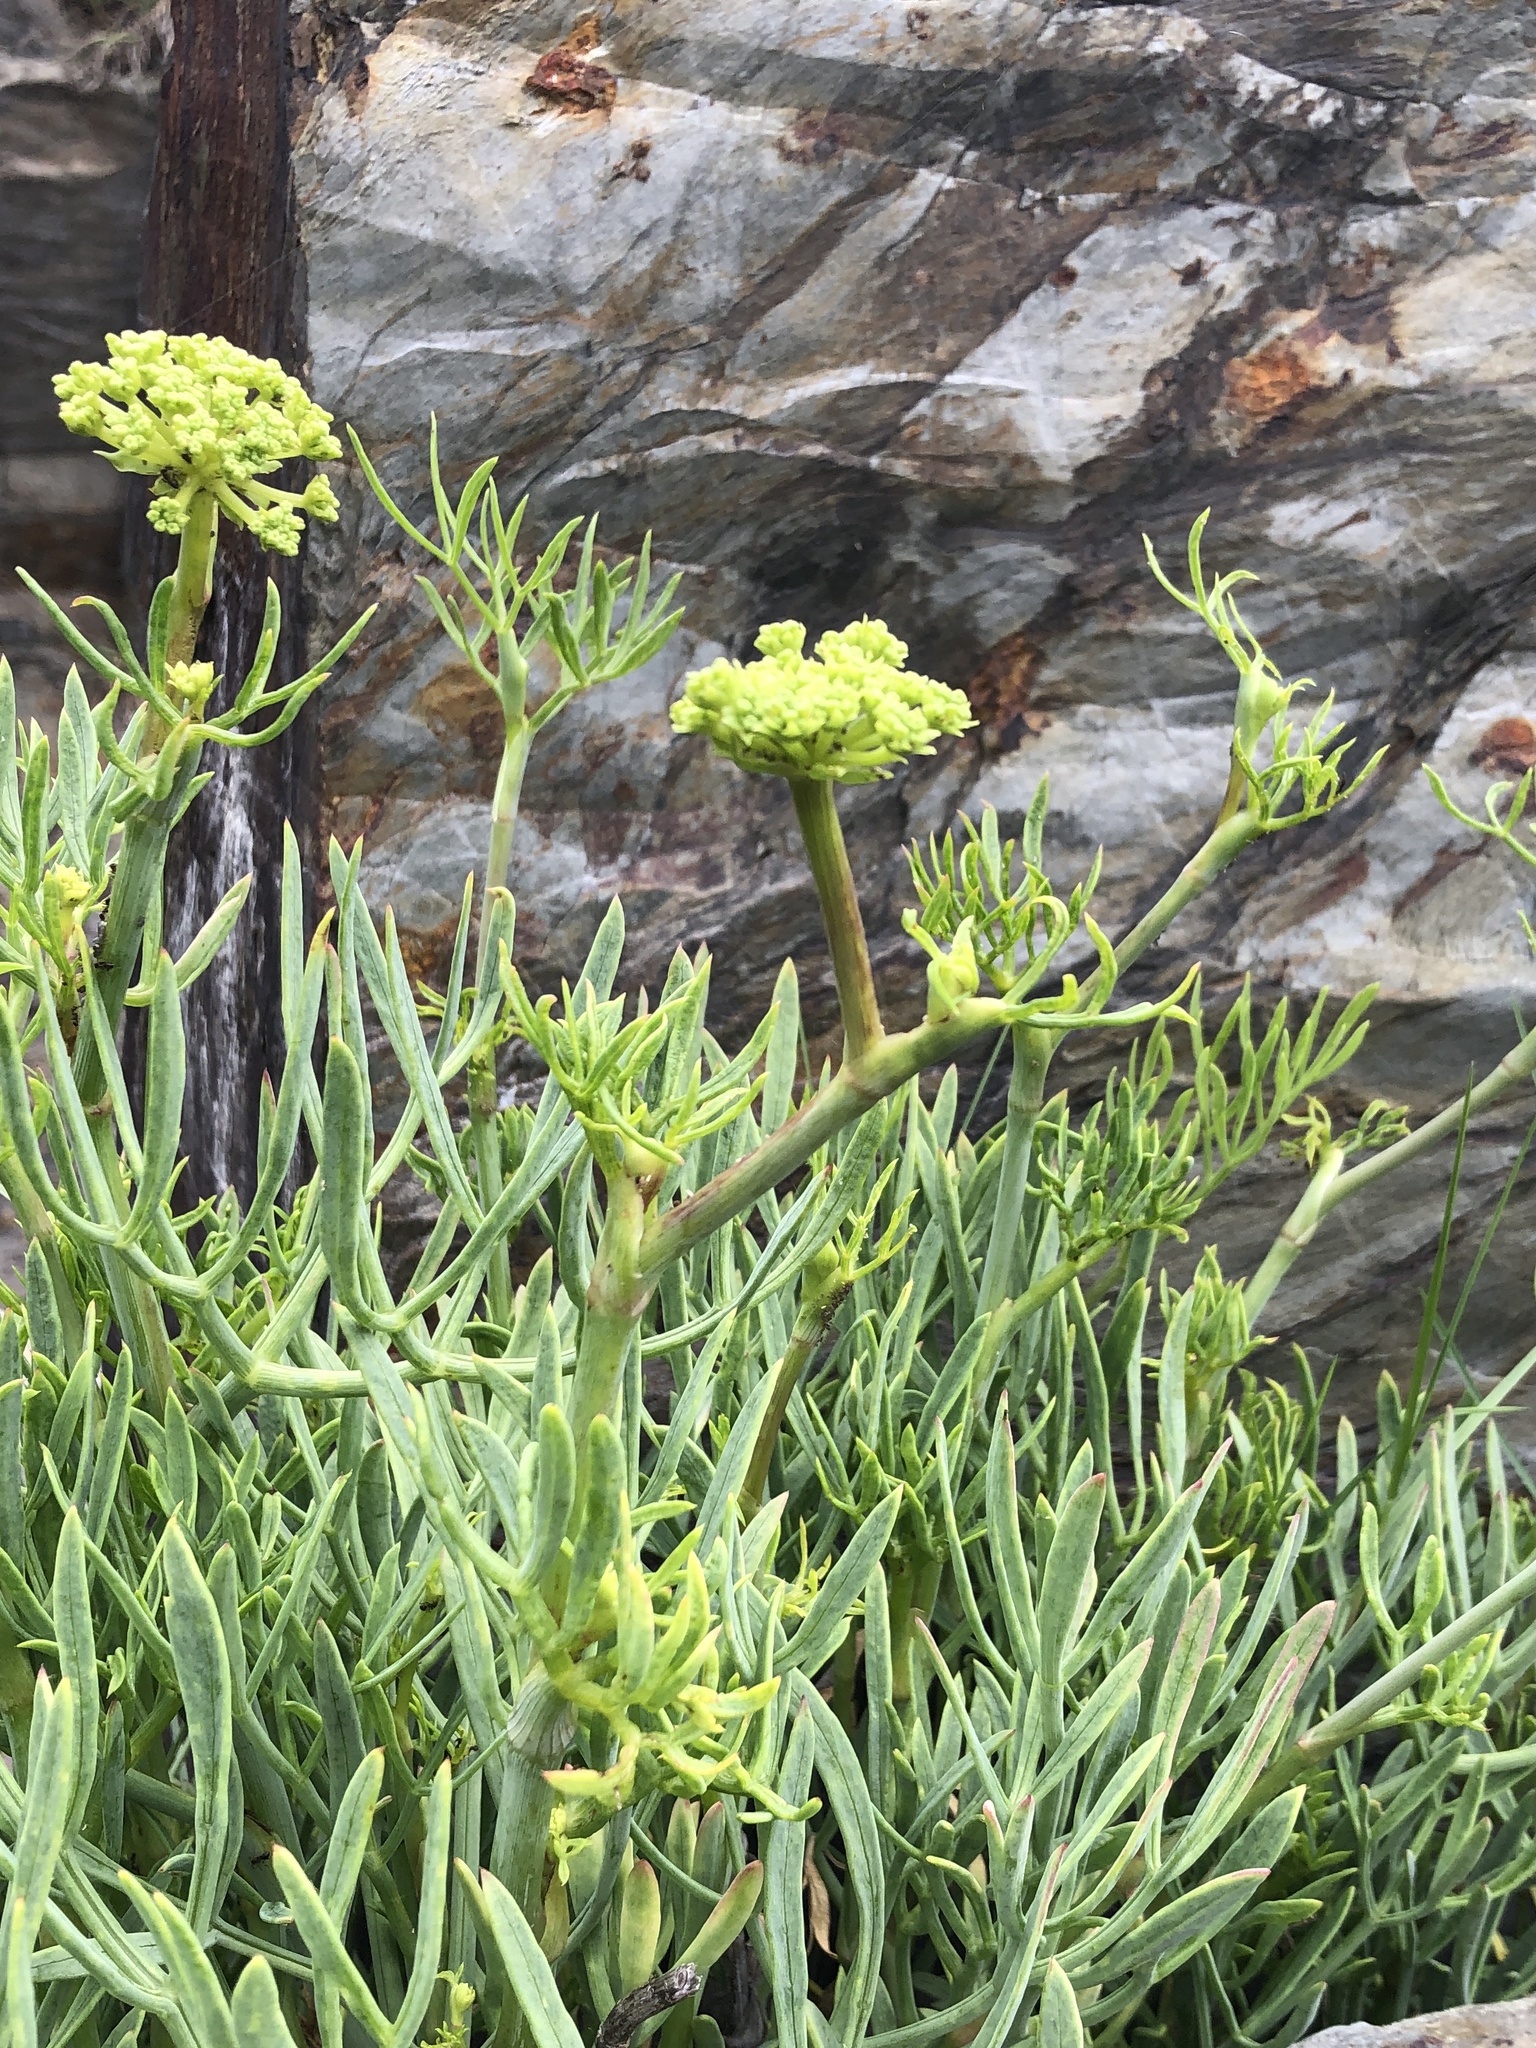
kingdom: Plantae
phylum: Tracheophyta
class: Magnoliopsida
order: Apiales
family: Apiaceae
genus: Crithmum
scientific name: Crithmum maritimum
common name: Rock samphire
